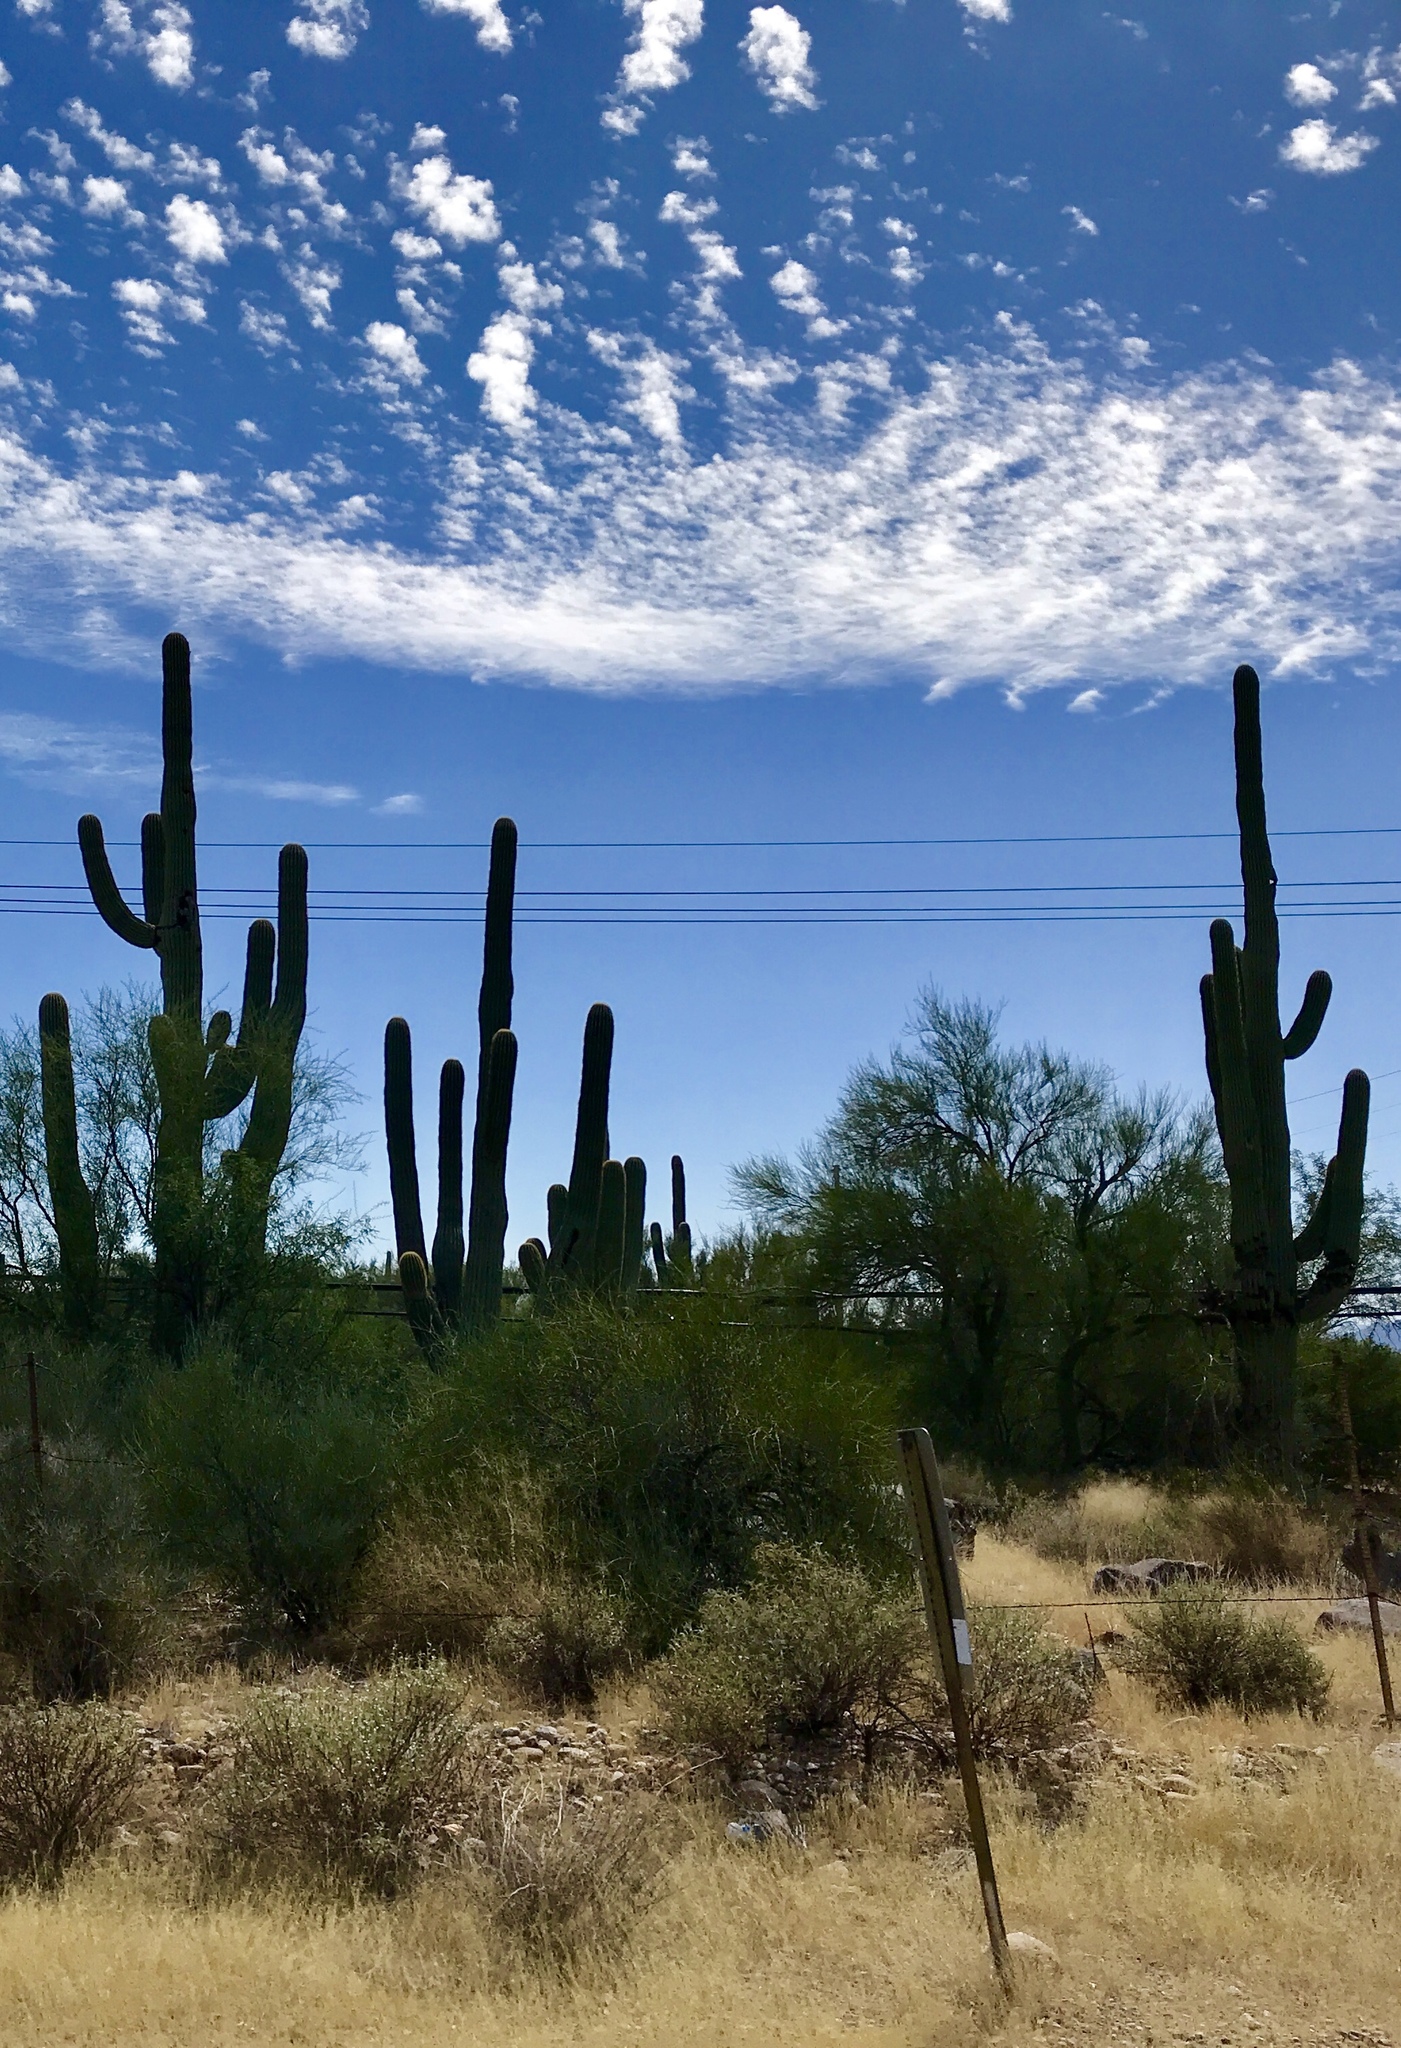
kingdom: Plantae
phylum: Tracheophyta
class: Magnoliopsida
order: Caryophyllales
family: Cactaceae
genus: Carnegiea
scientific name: Carnegiea gigantea
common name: Saguaro
